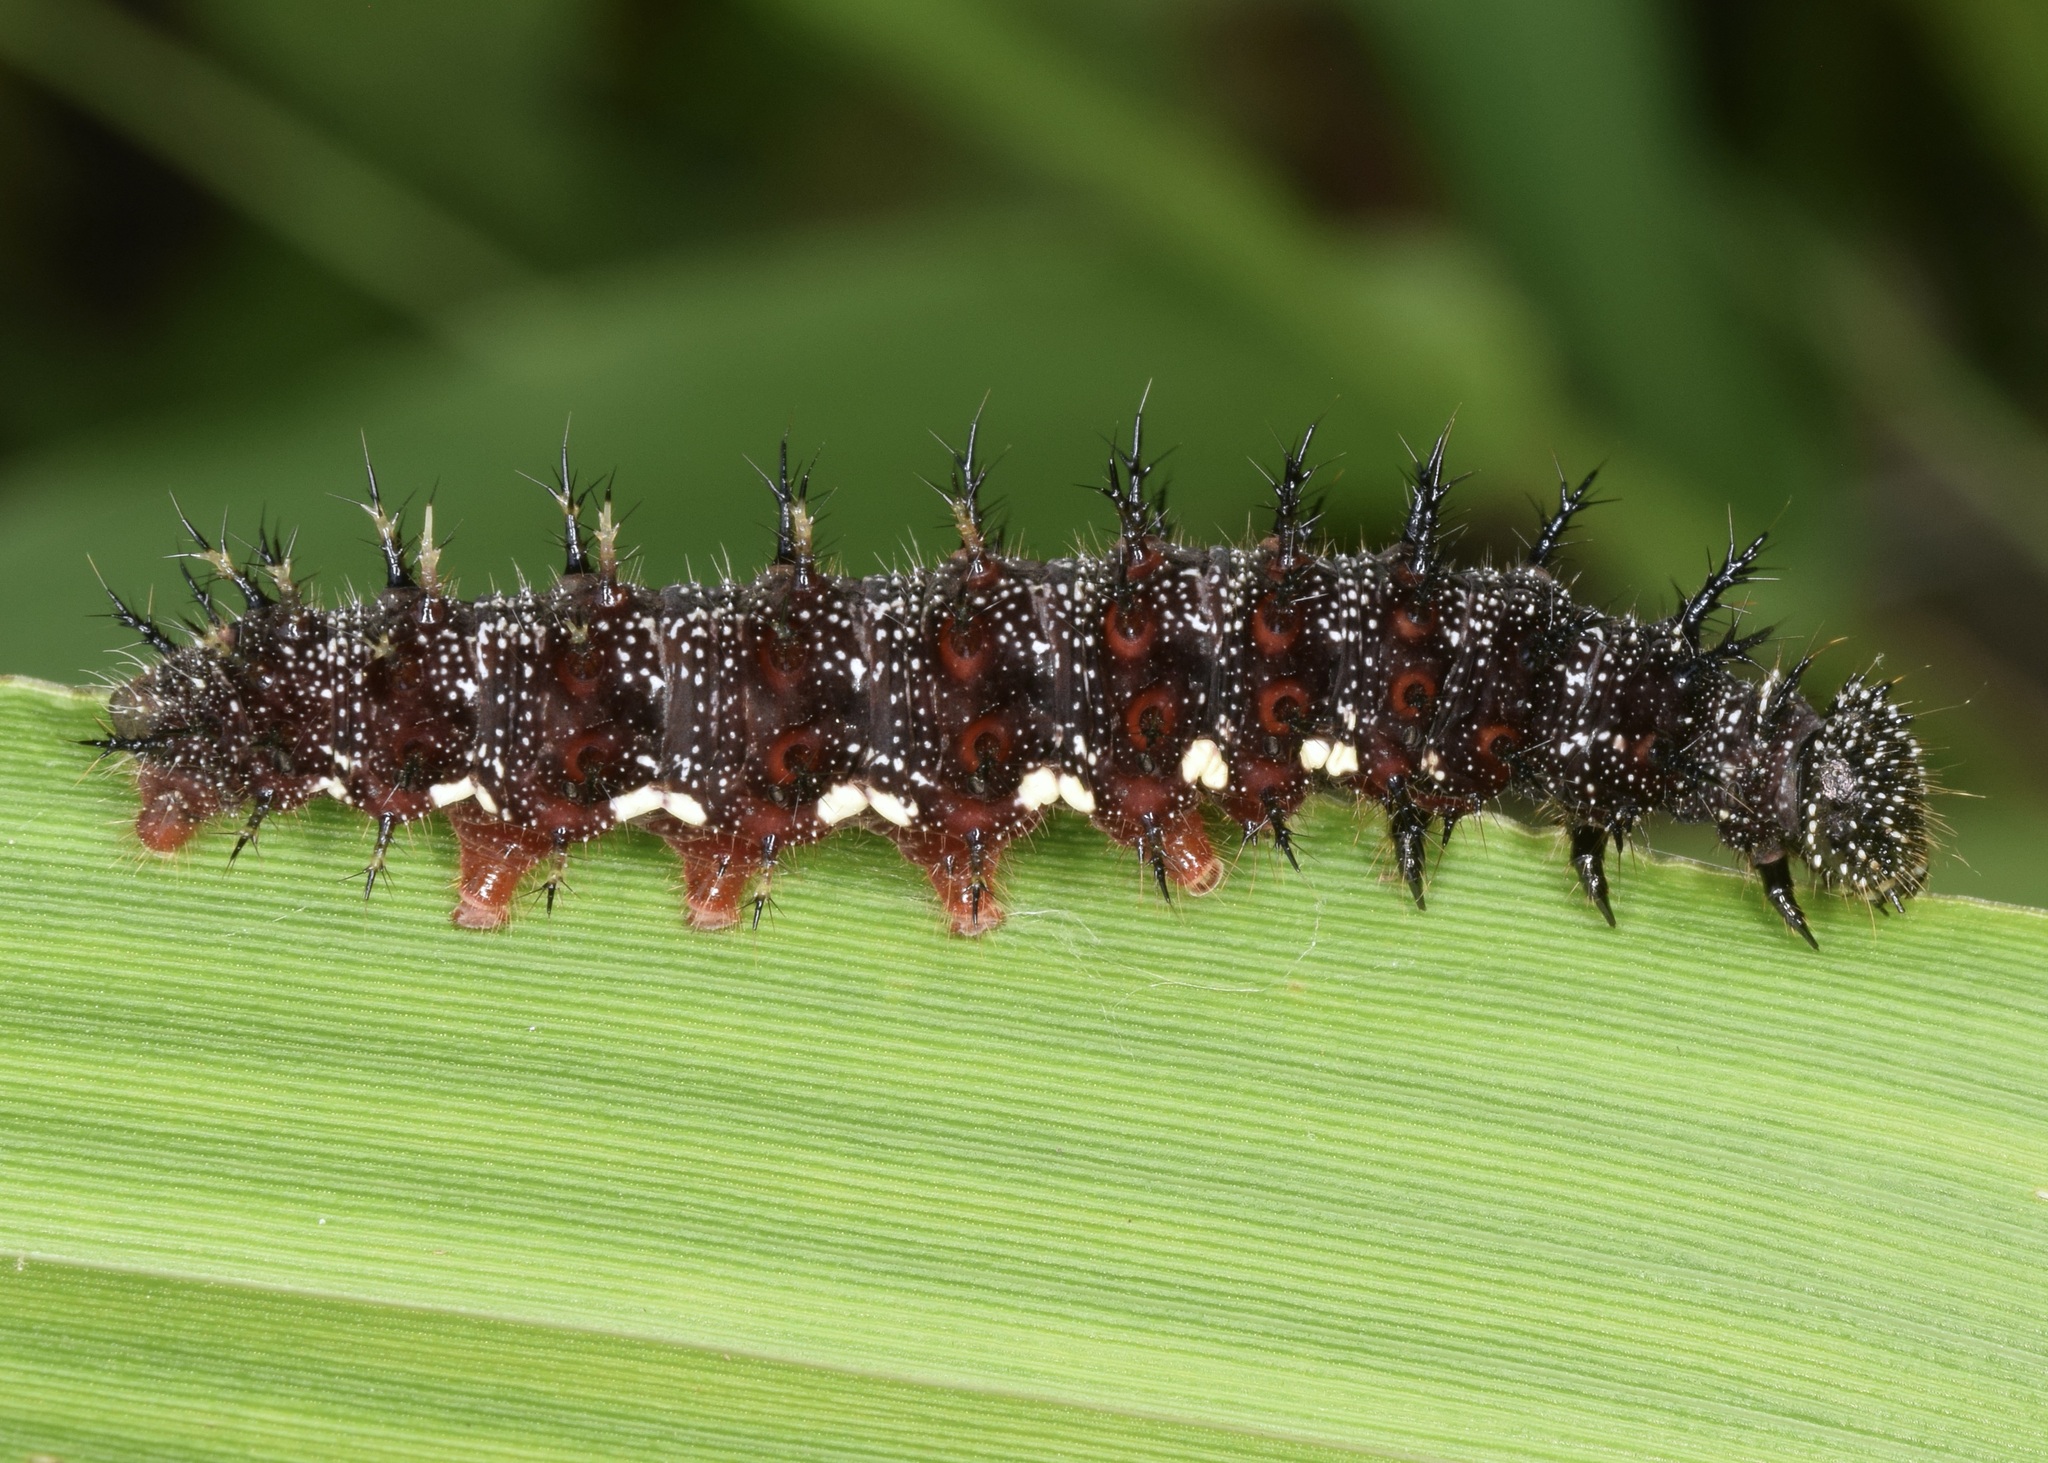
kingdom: Animalia
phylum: Arthropoda
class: Insecta
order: Lepidoptera
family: Nymphalidae
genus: Vanessa
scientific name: Vanessa atalanta
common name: Red admiral
